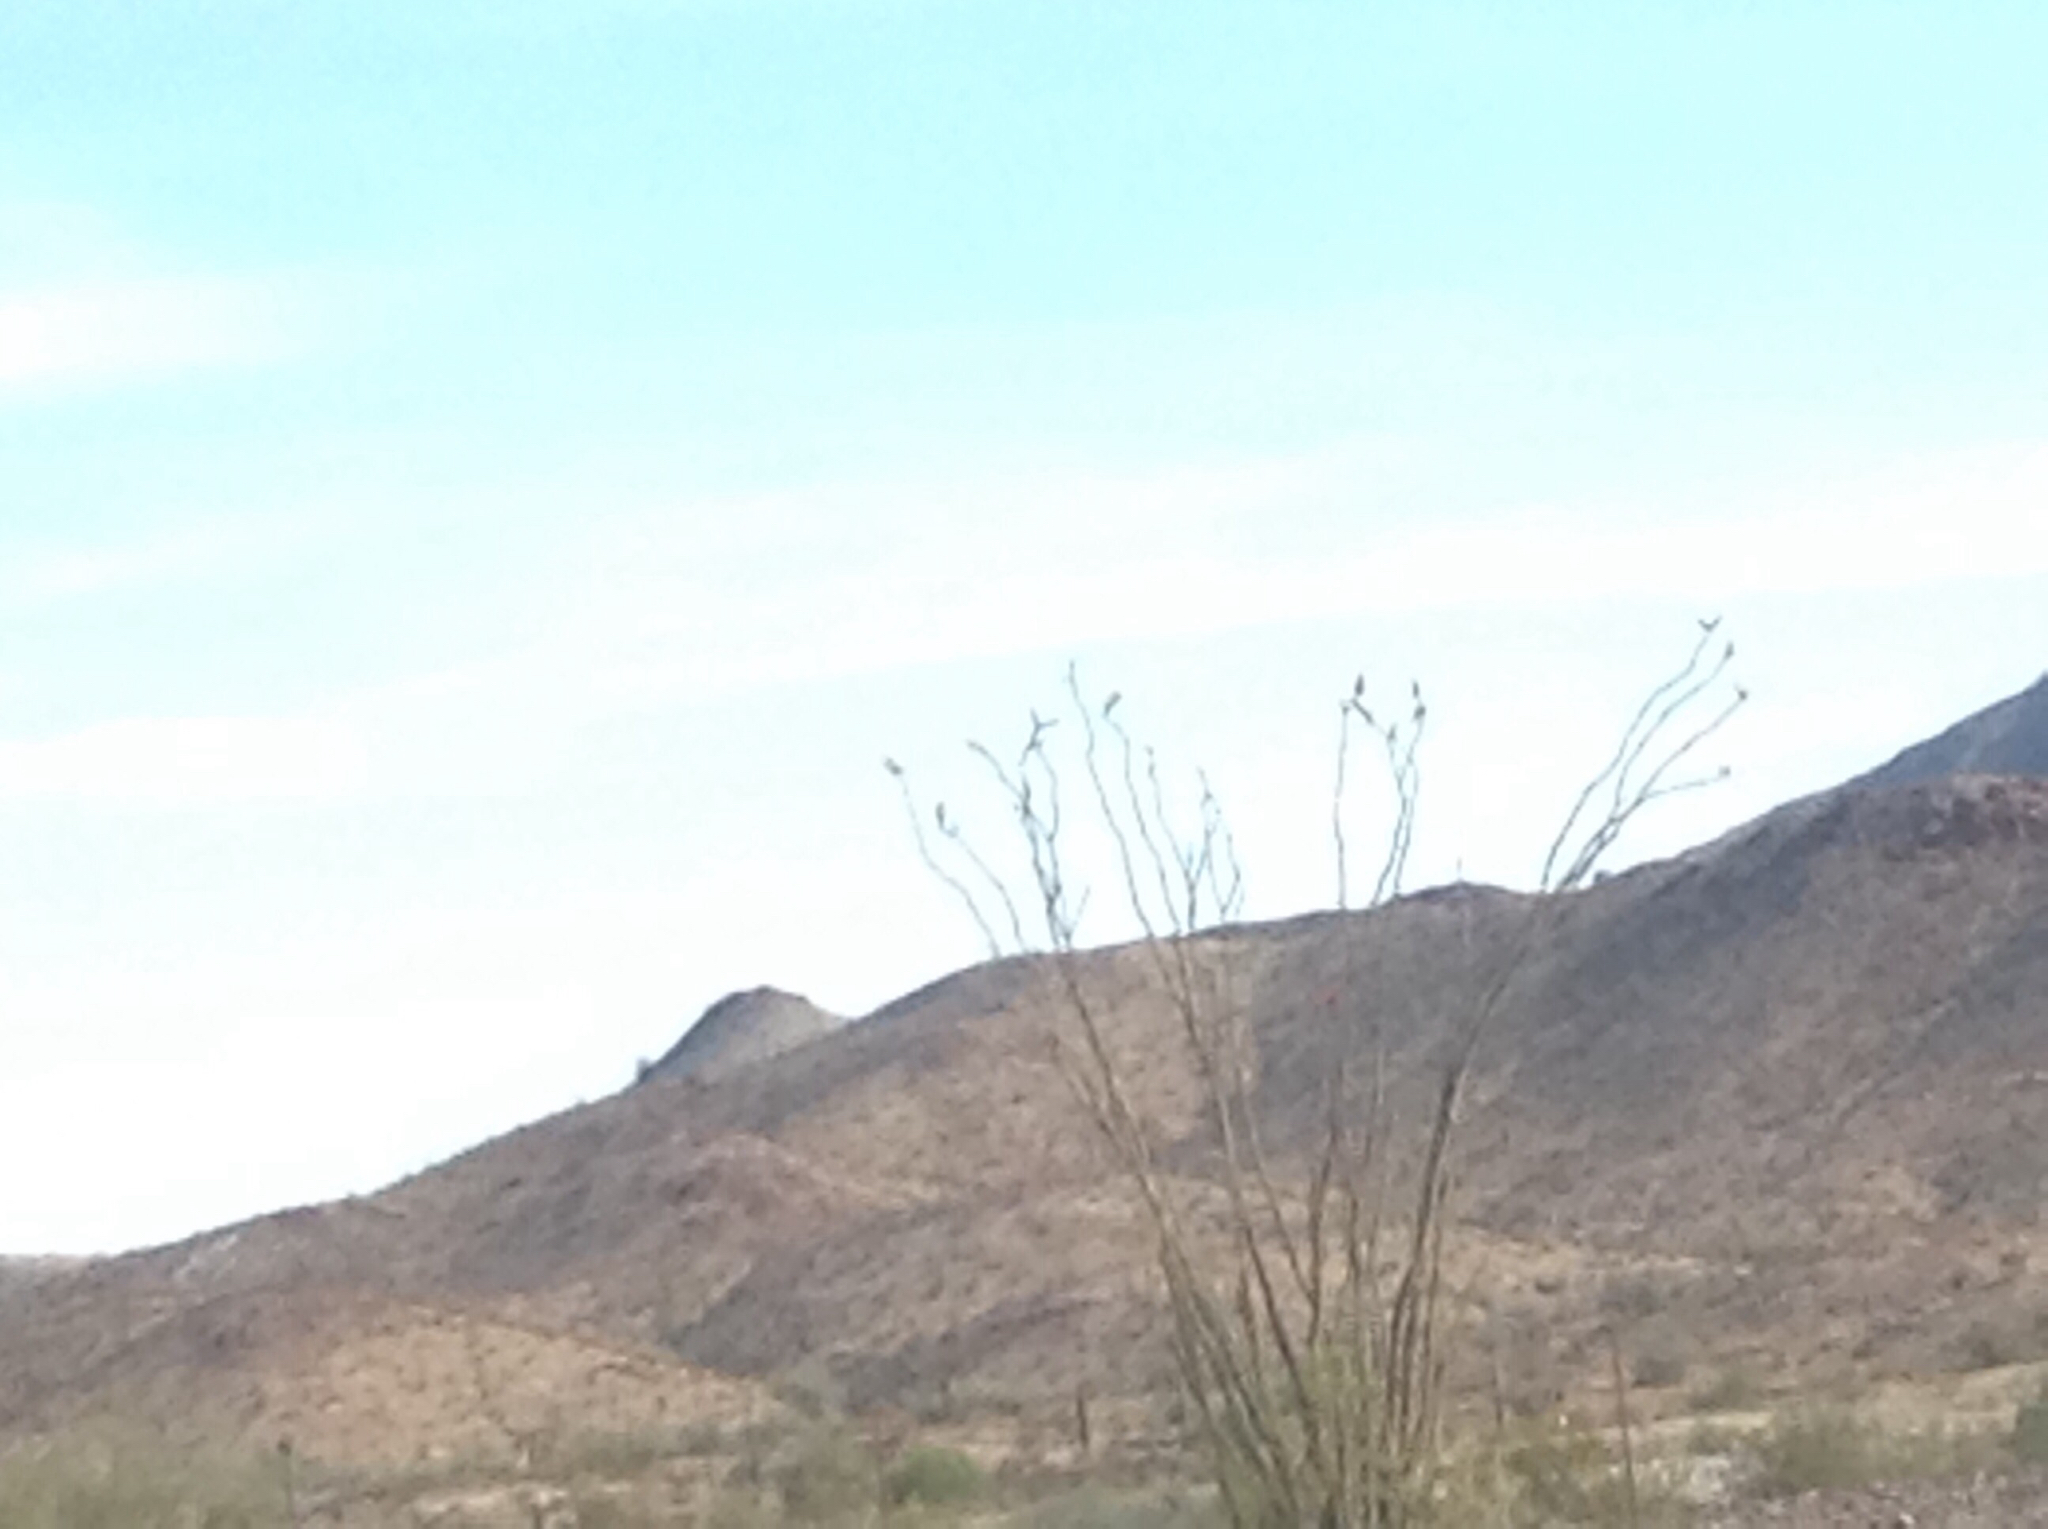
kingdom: Plantae
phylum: Tracheophyta
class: Magnoliopsida
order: Ericales
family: Fouquieriaceae
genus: Fouquieria
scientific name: Fouquieria splendens
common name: Vine-cactus
